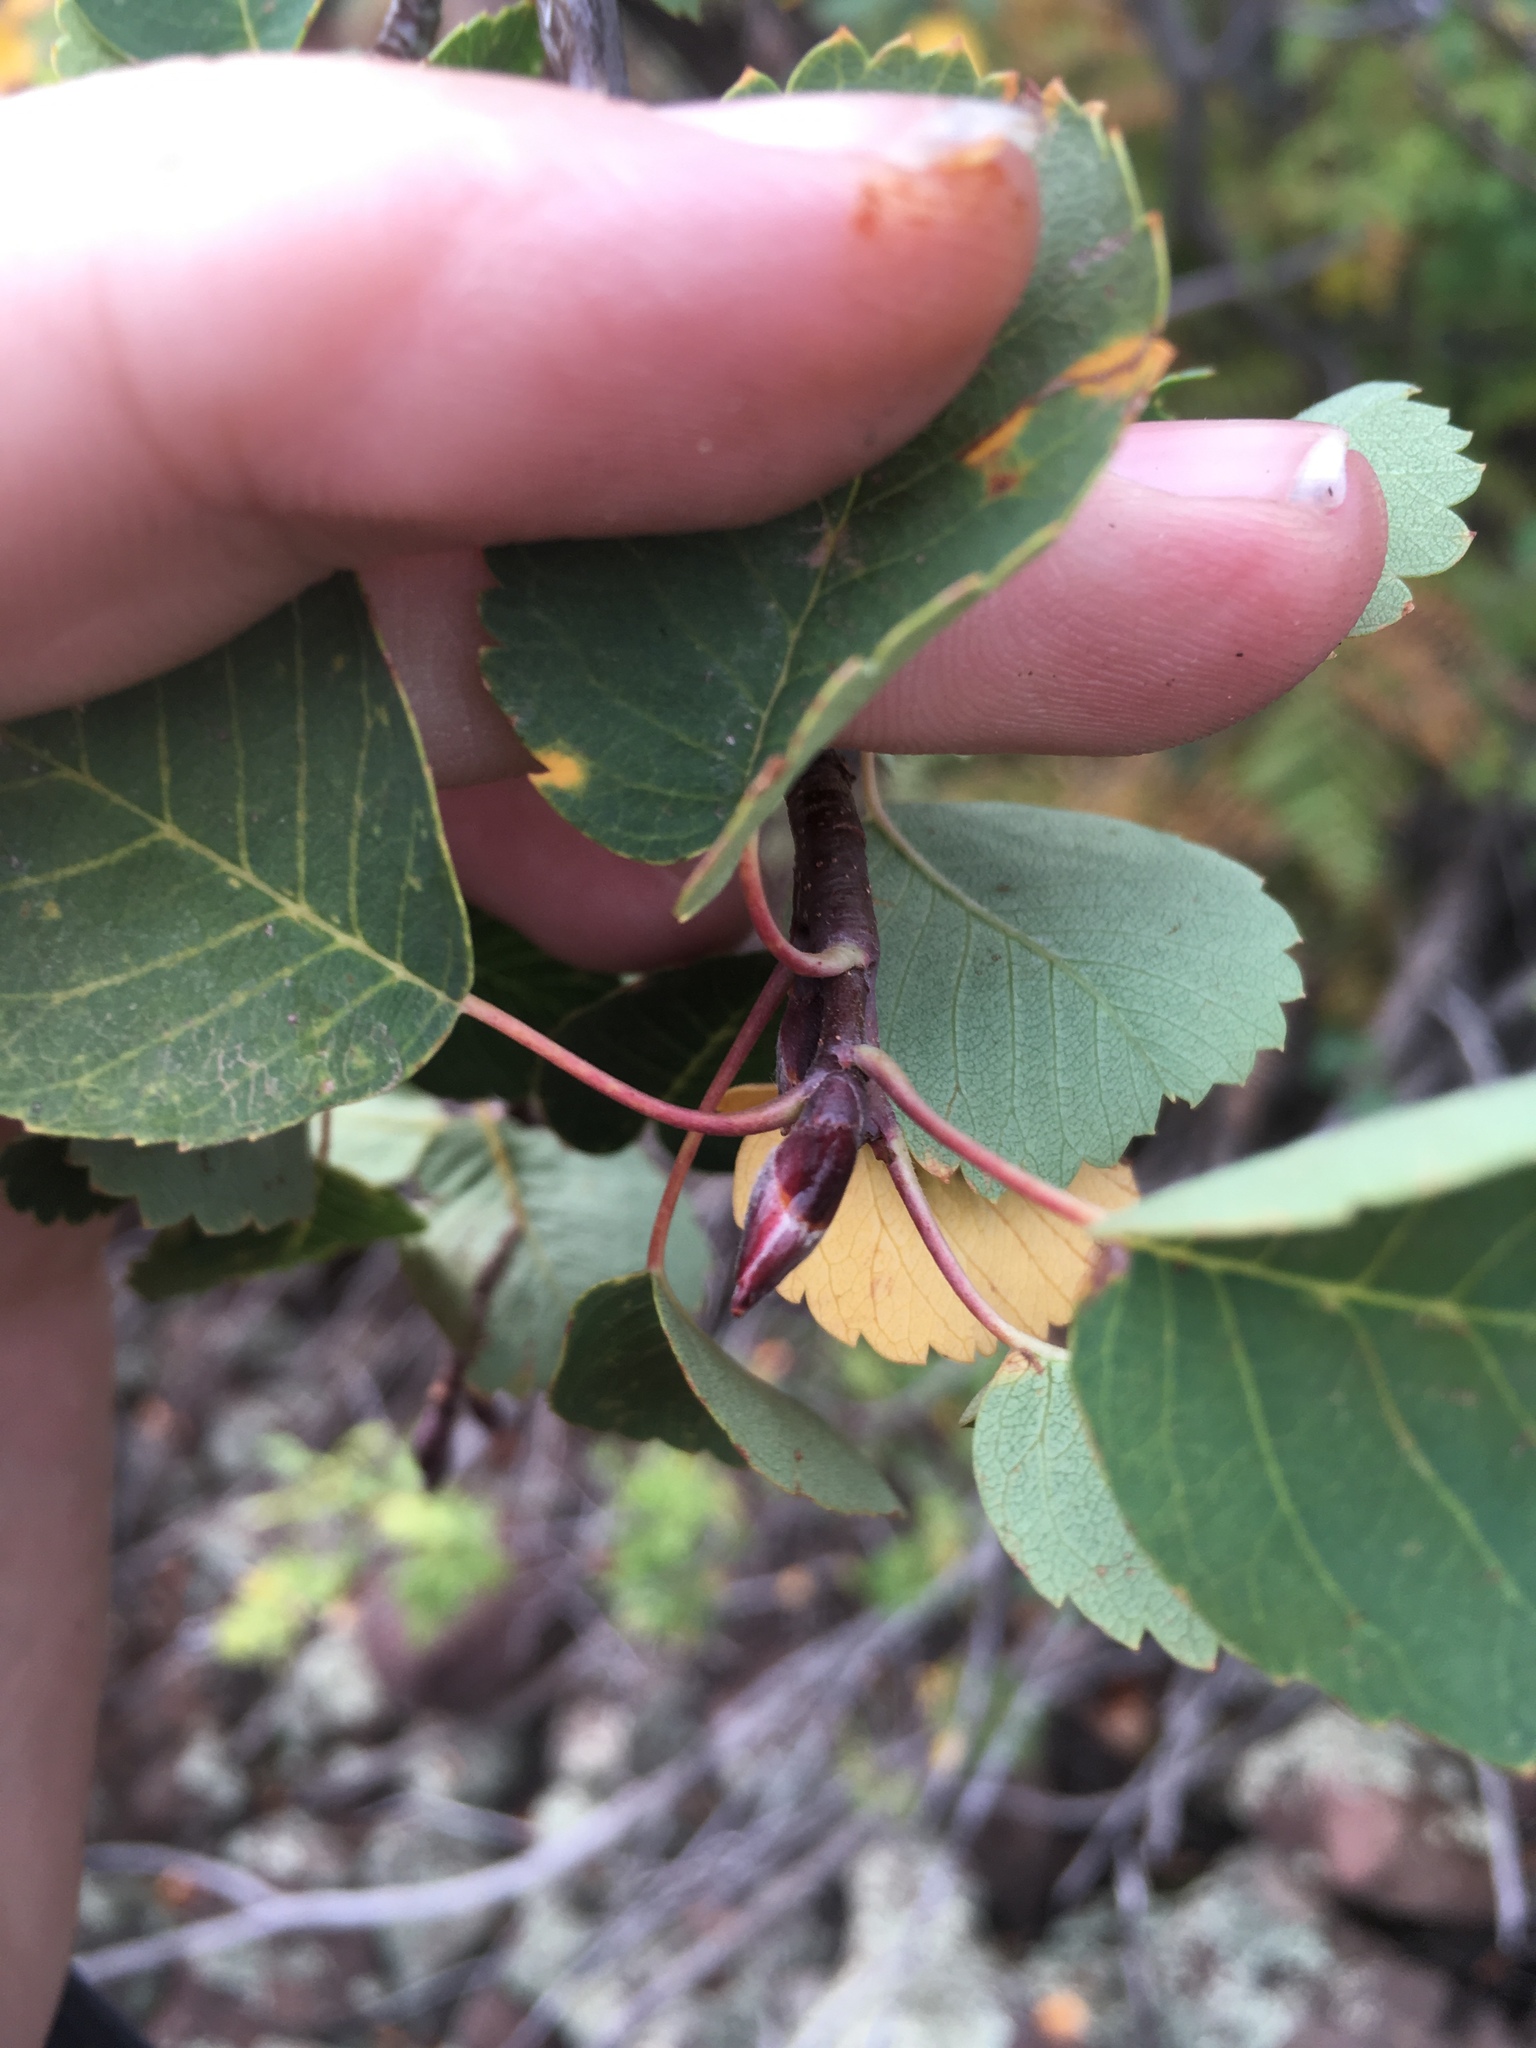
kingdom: Plantae
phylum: Tracheophyta
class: Magnoliopsida
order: Rosales
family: Rosaceae
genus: Amelanchier
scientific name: Amelanchier utahensis
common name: Utah serviceberry
